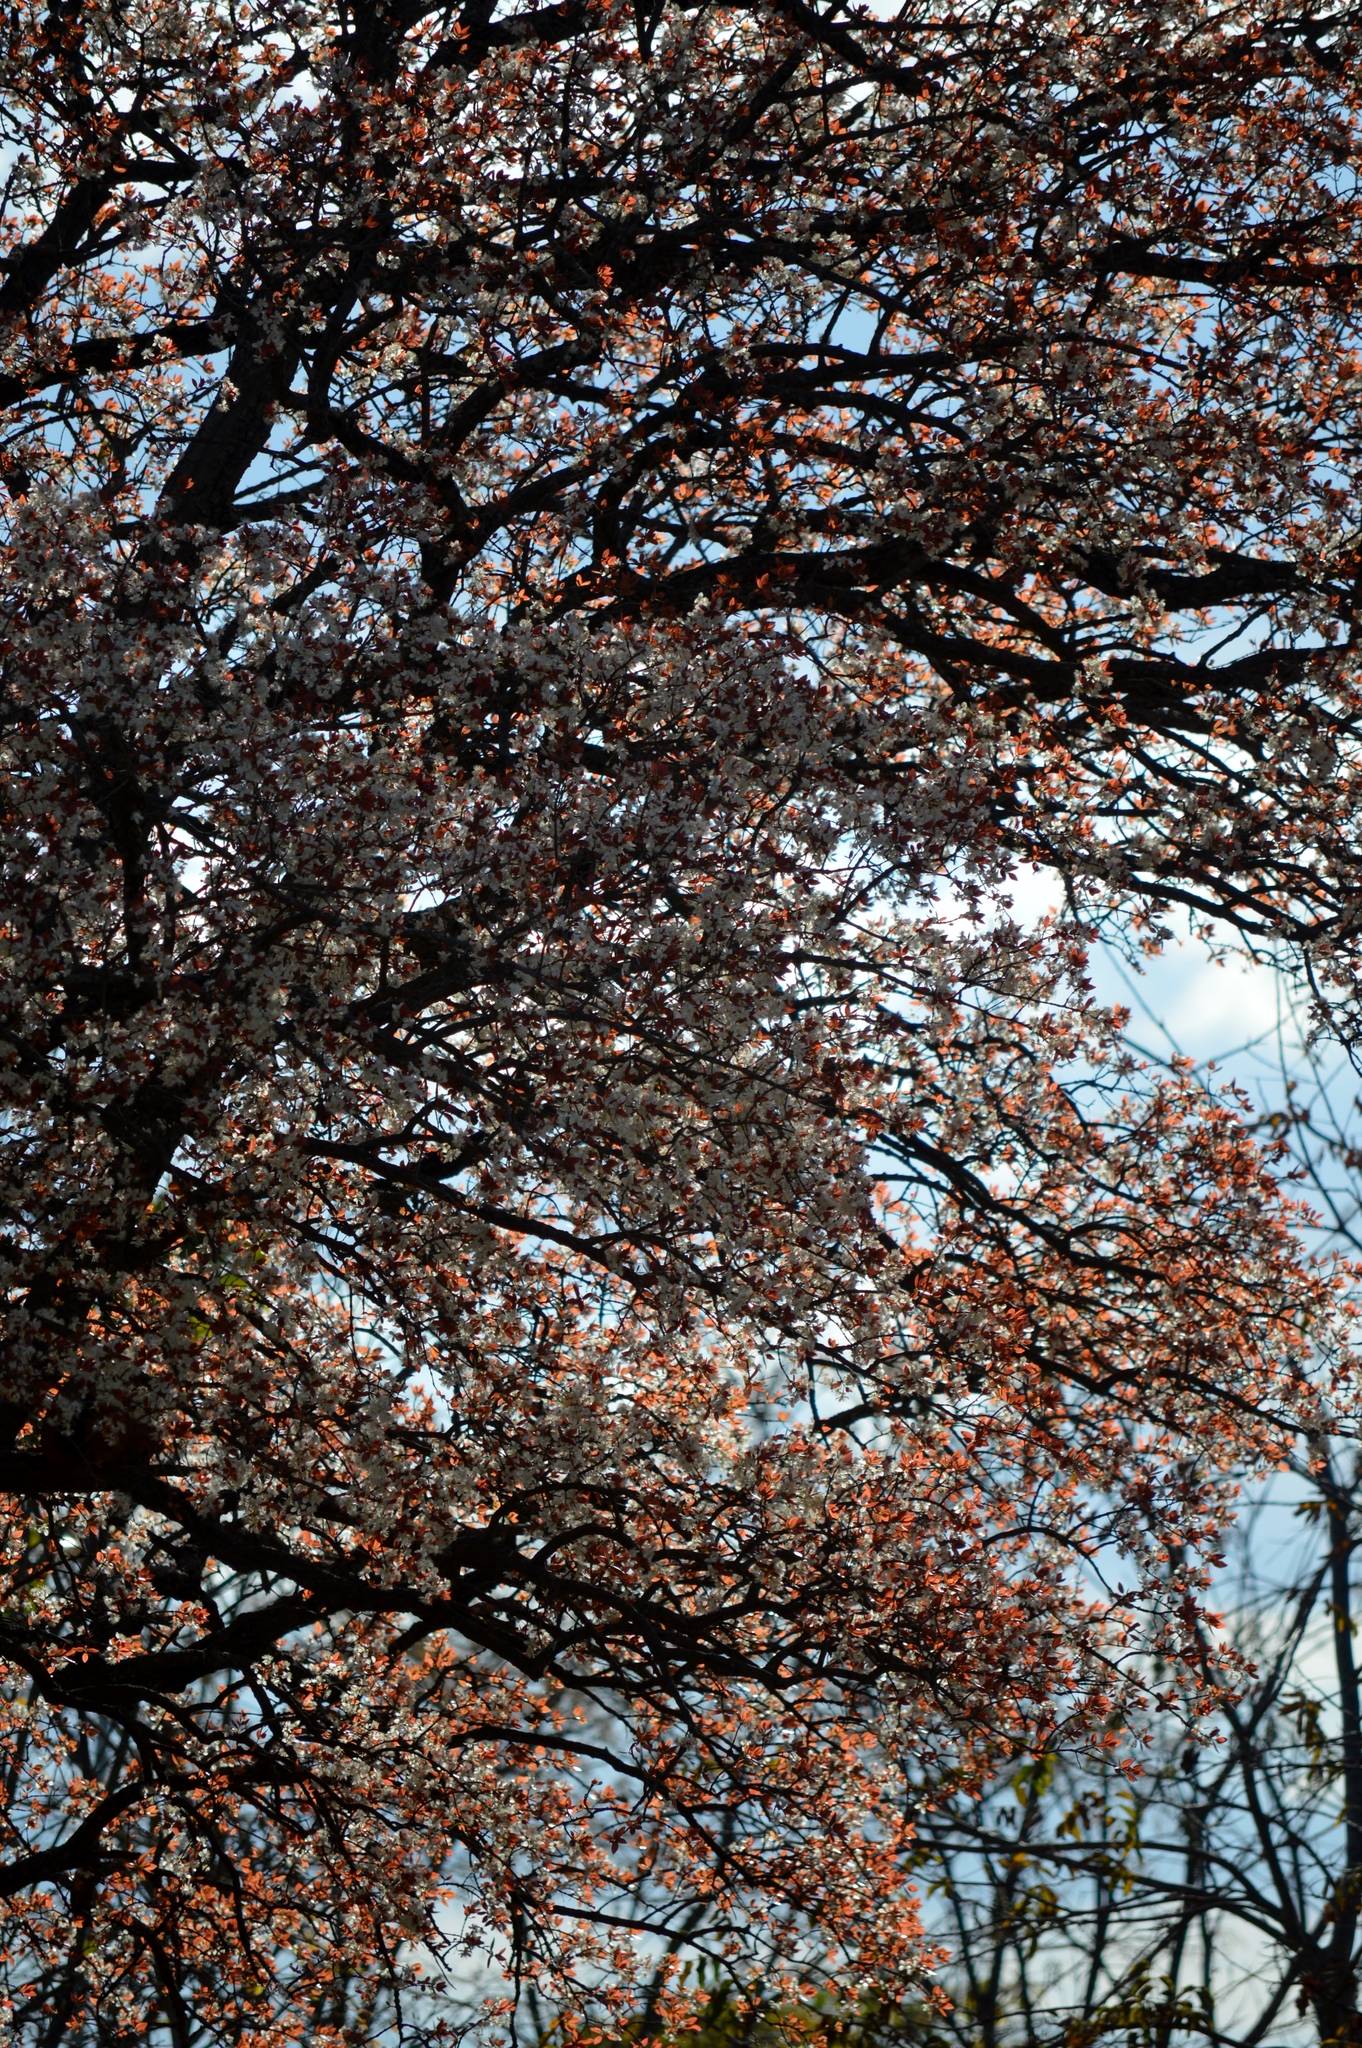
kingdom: Plantae
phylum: Tracheophyta
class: Magnoliopsida
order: Myrtales
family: Myrtaceae
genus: Eugenia
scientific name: Eugenia dysenterica
